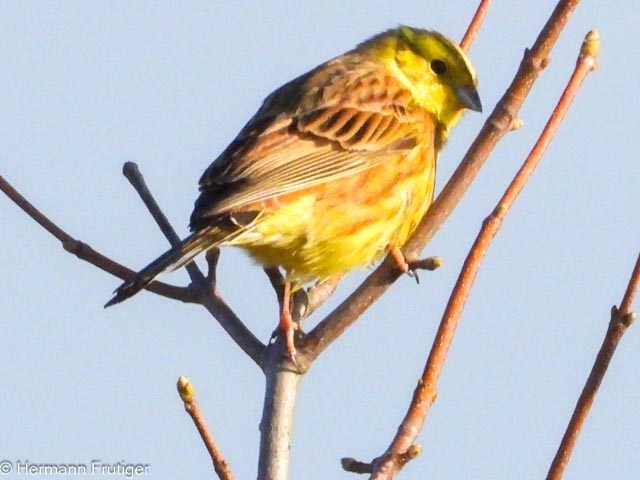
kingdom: Animalia
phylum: Chordata
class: Aves
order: Passeriformes
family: Emberizidae
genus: Emberiza
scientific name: Emberiza citrinella
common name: Yellowhammer
